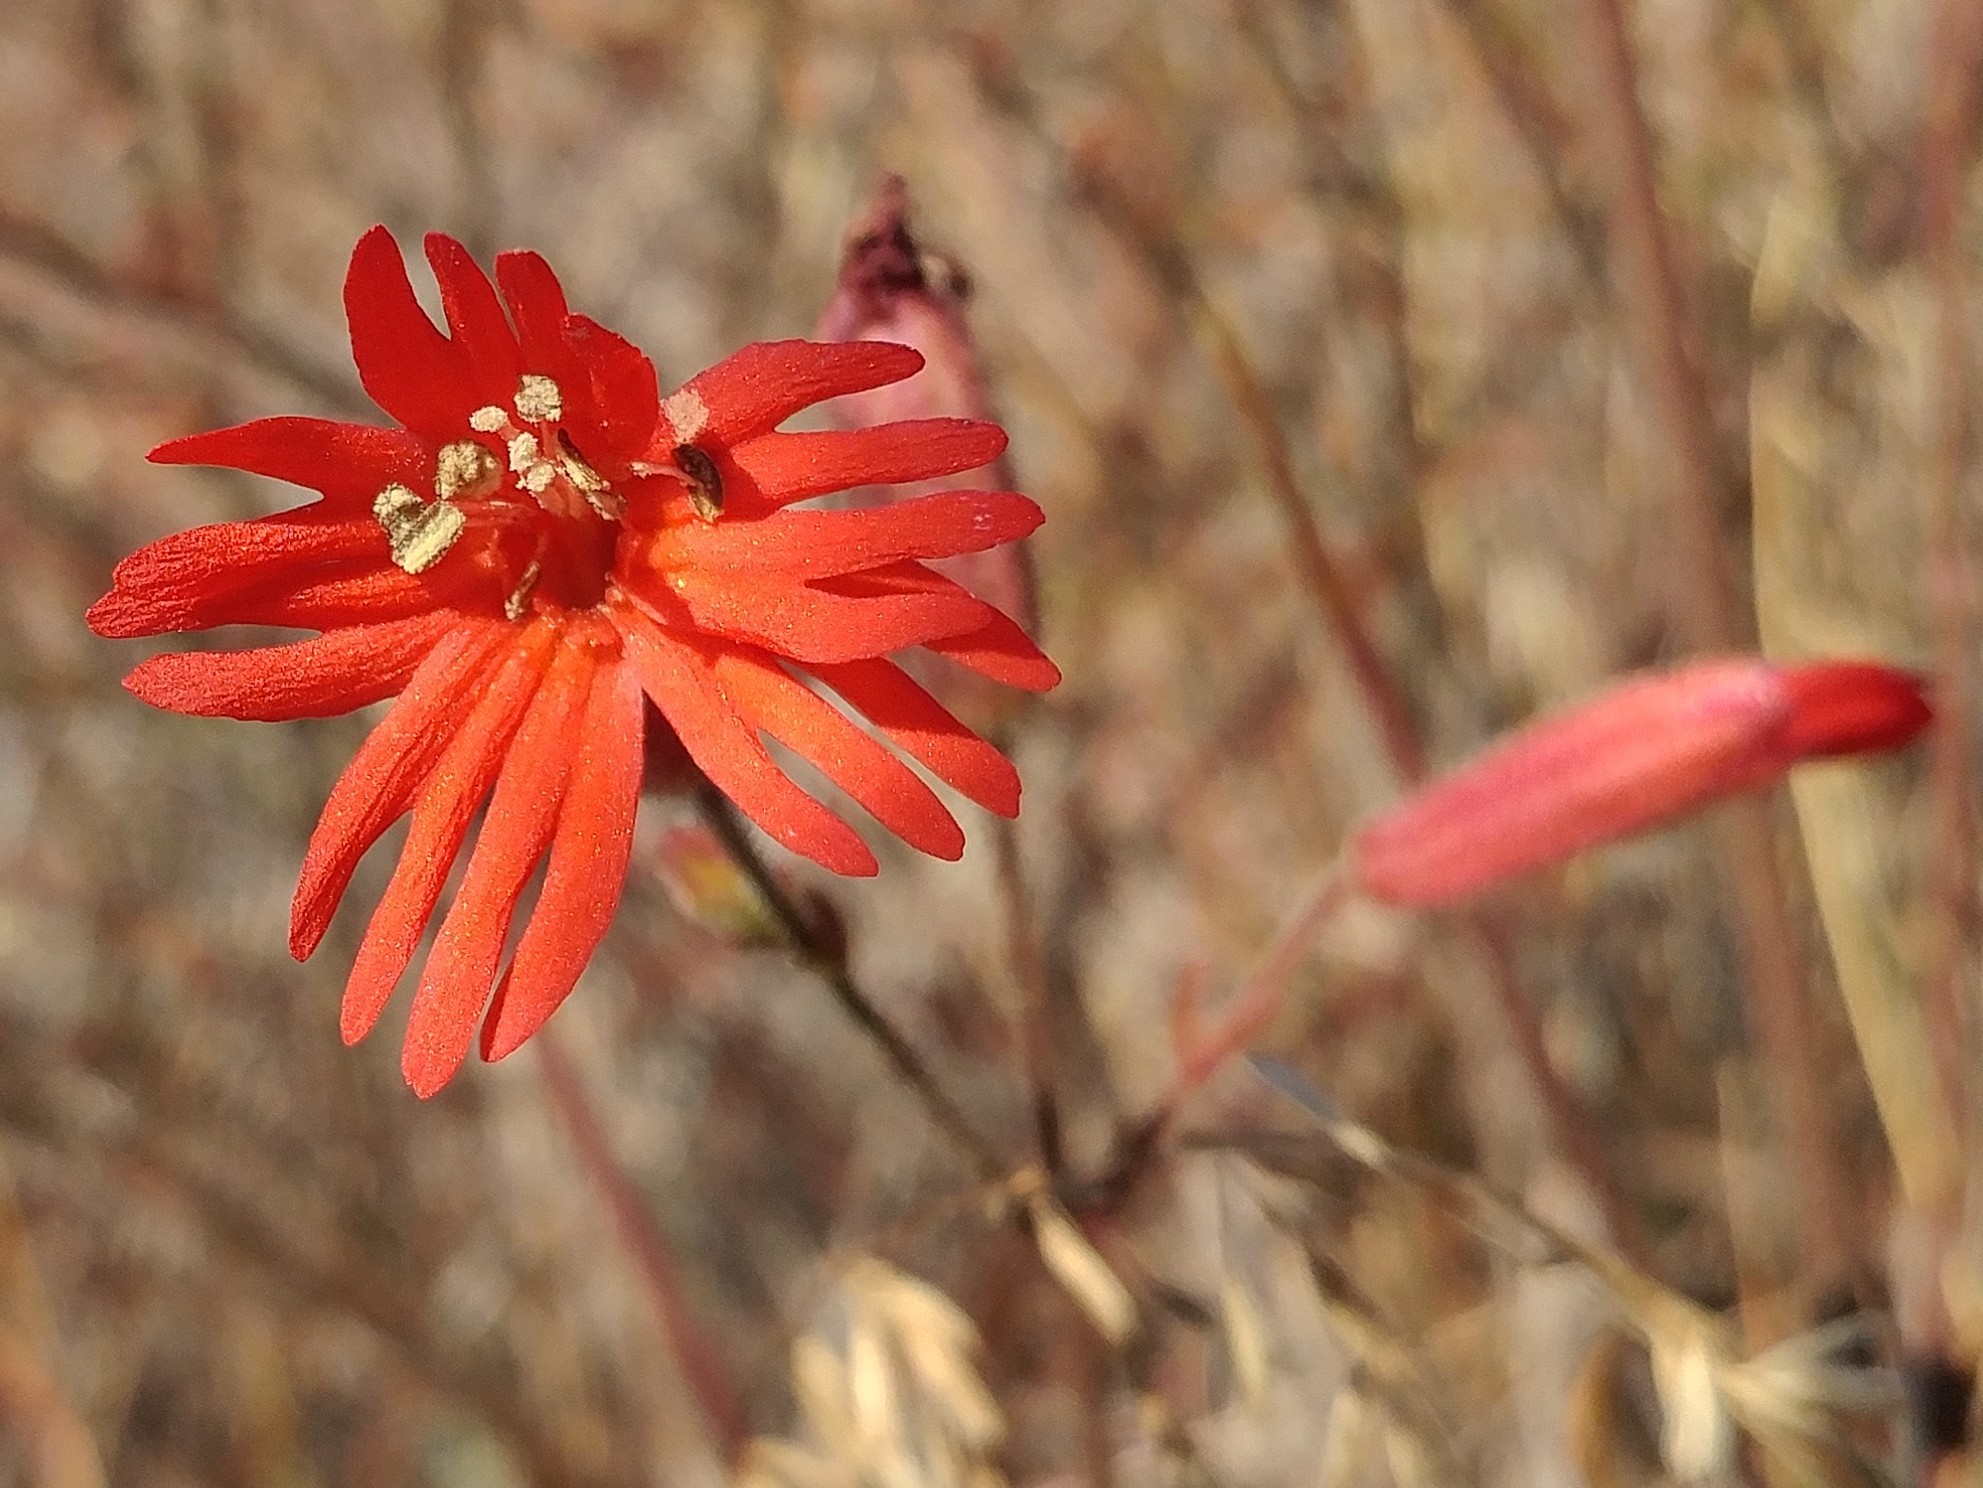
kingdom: Plantae
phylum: Tracheophyta
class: Magnoliopsida
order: Caryophyllales
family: Caryophyllaceae
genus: Silene
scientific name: Silene laciniata
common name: Indian-pink
